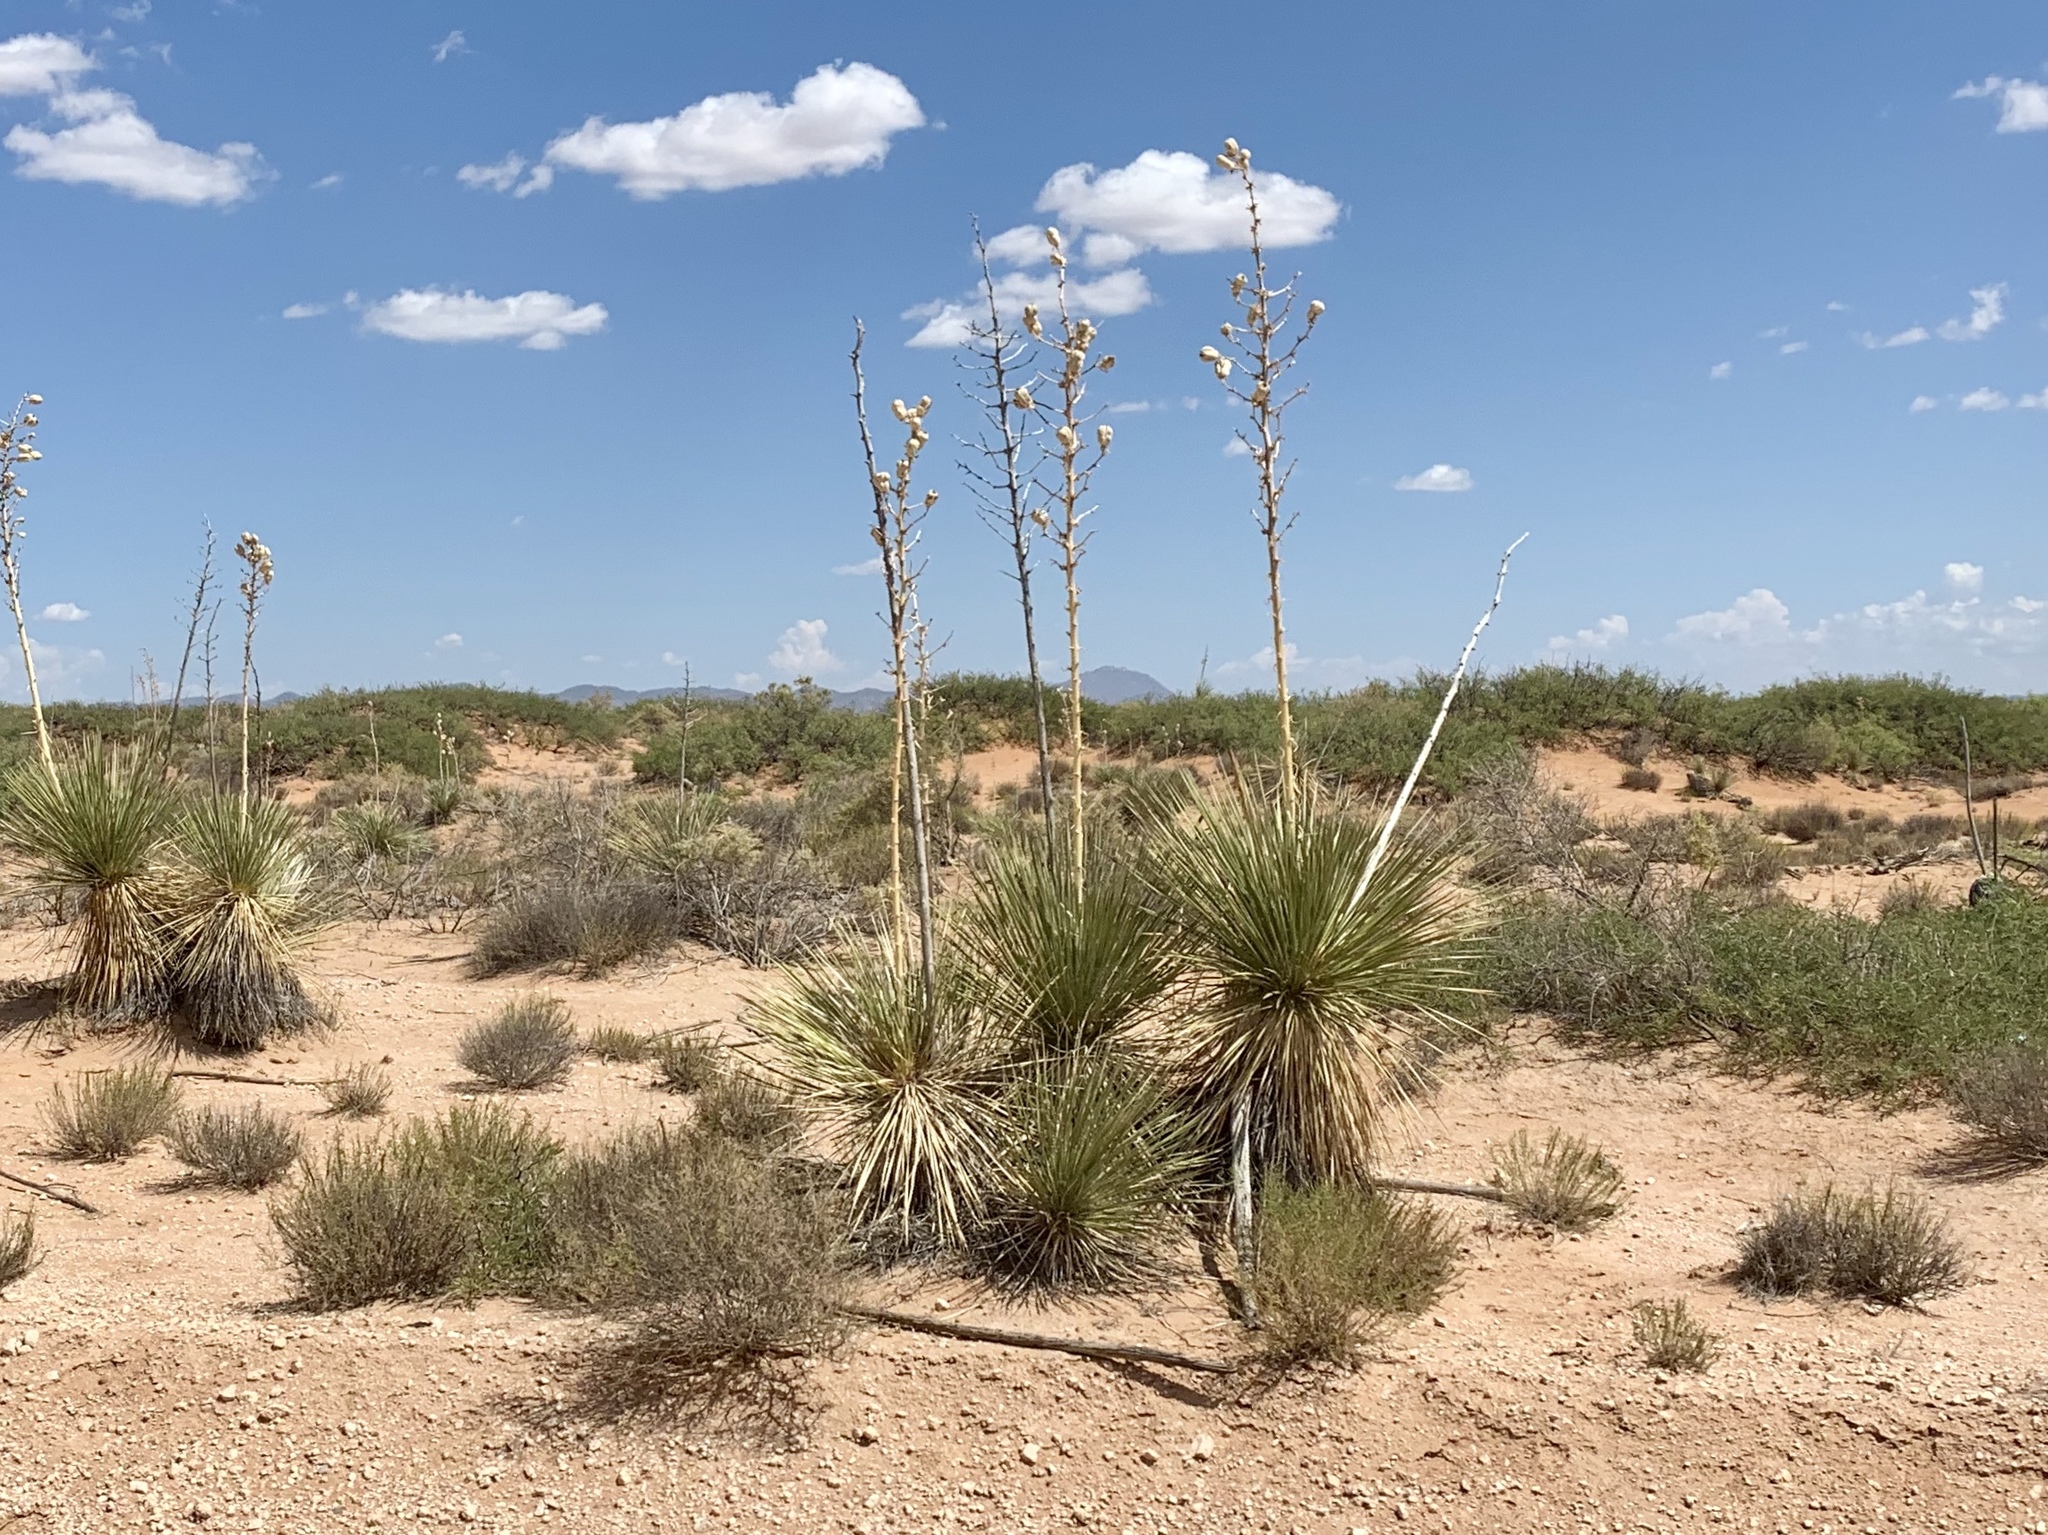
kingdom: Plantae
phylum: Tracheophyta
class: Liliopsida
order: Asparagales
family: Asparagaceae
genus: Yucca
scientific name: Yucca elata
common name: Palmella
